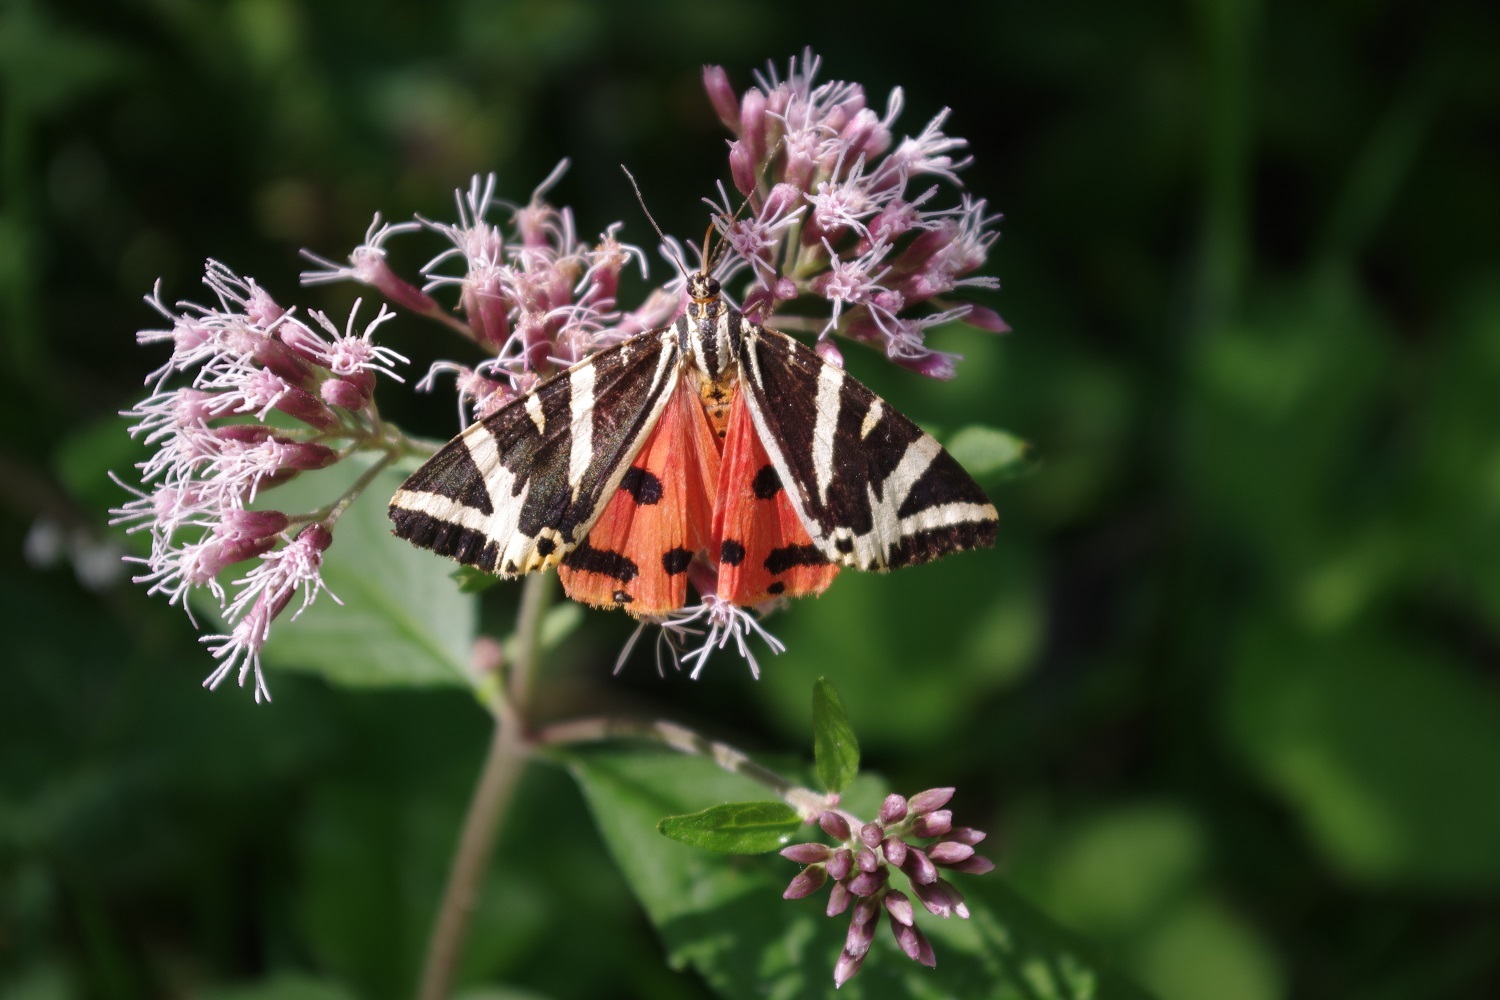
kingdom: Animalia
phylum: Arthropoda
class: Insecta
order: Lepidoptera
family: Erebidae
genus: Euplagia
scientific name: Euplagia quadripunctaria
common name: Jersey tiger
